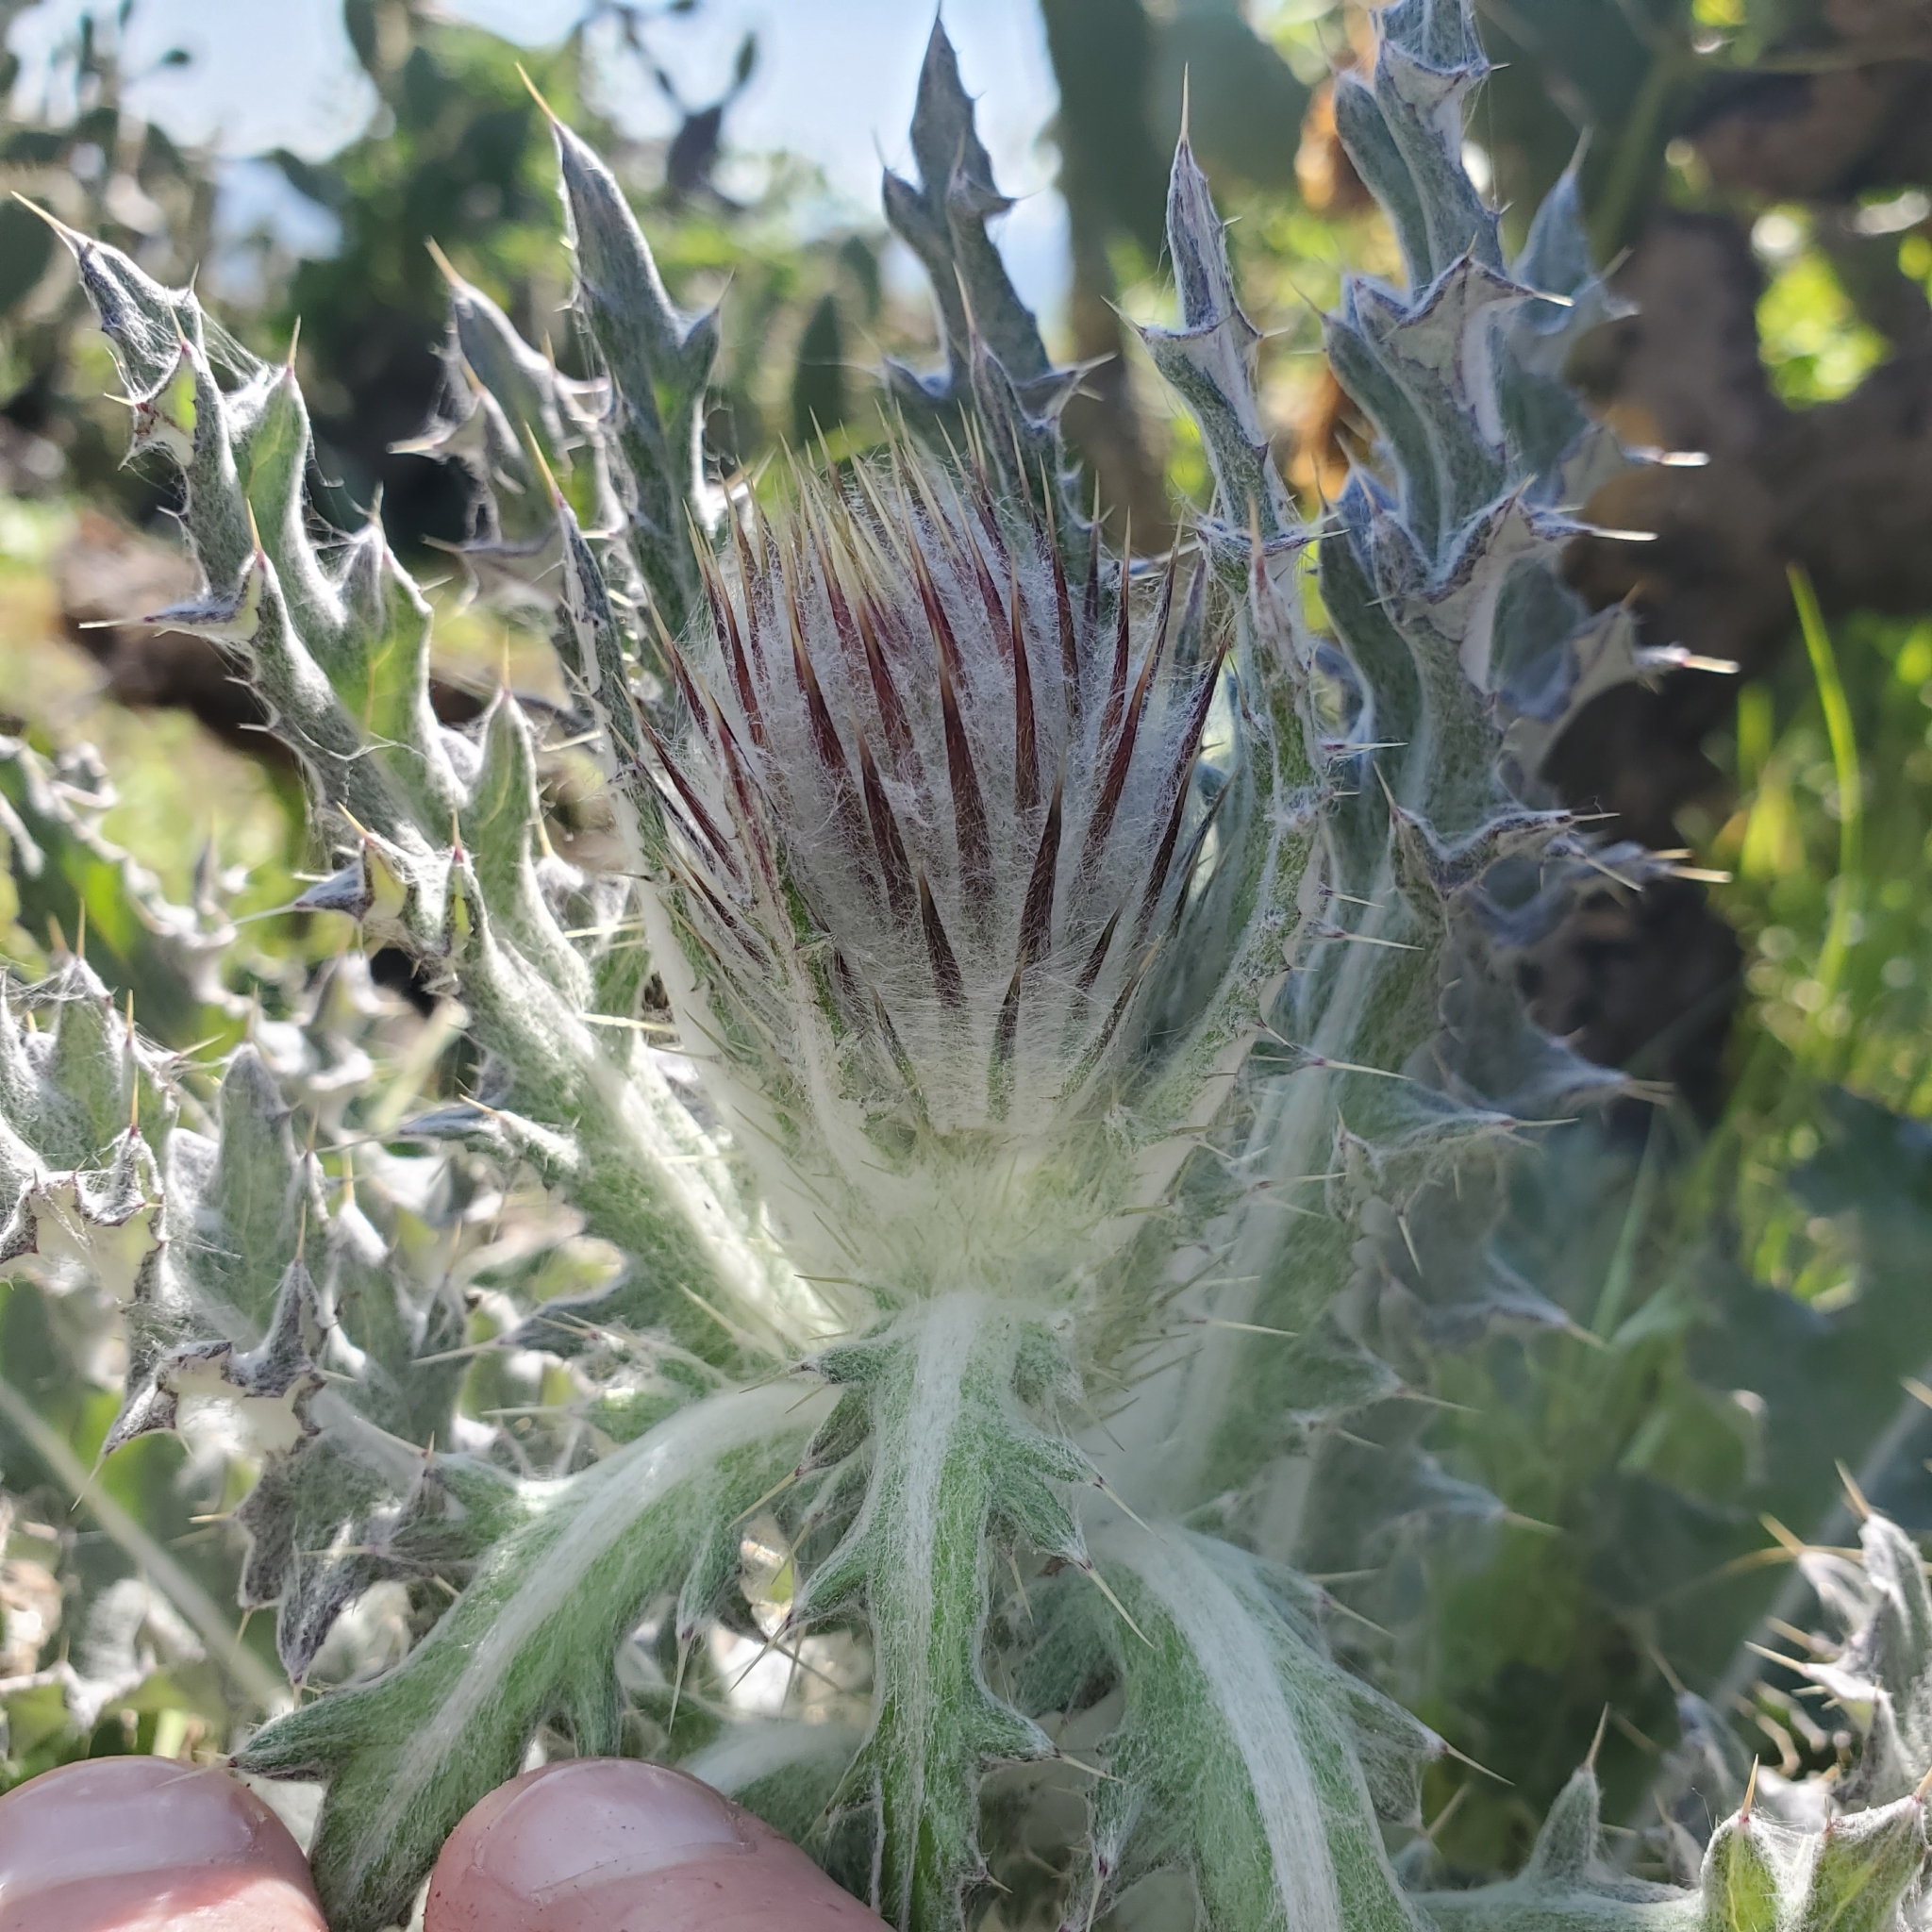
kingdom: Plantae
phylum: Tracheophyta
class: Magnoliopsida
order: Asterales
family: Asteraceae
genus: Cirsium
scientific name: Cirsium occidentale
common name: Western thistle
